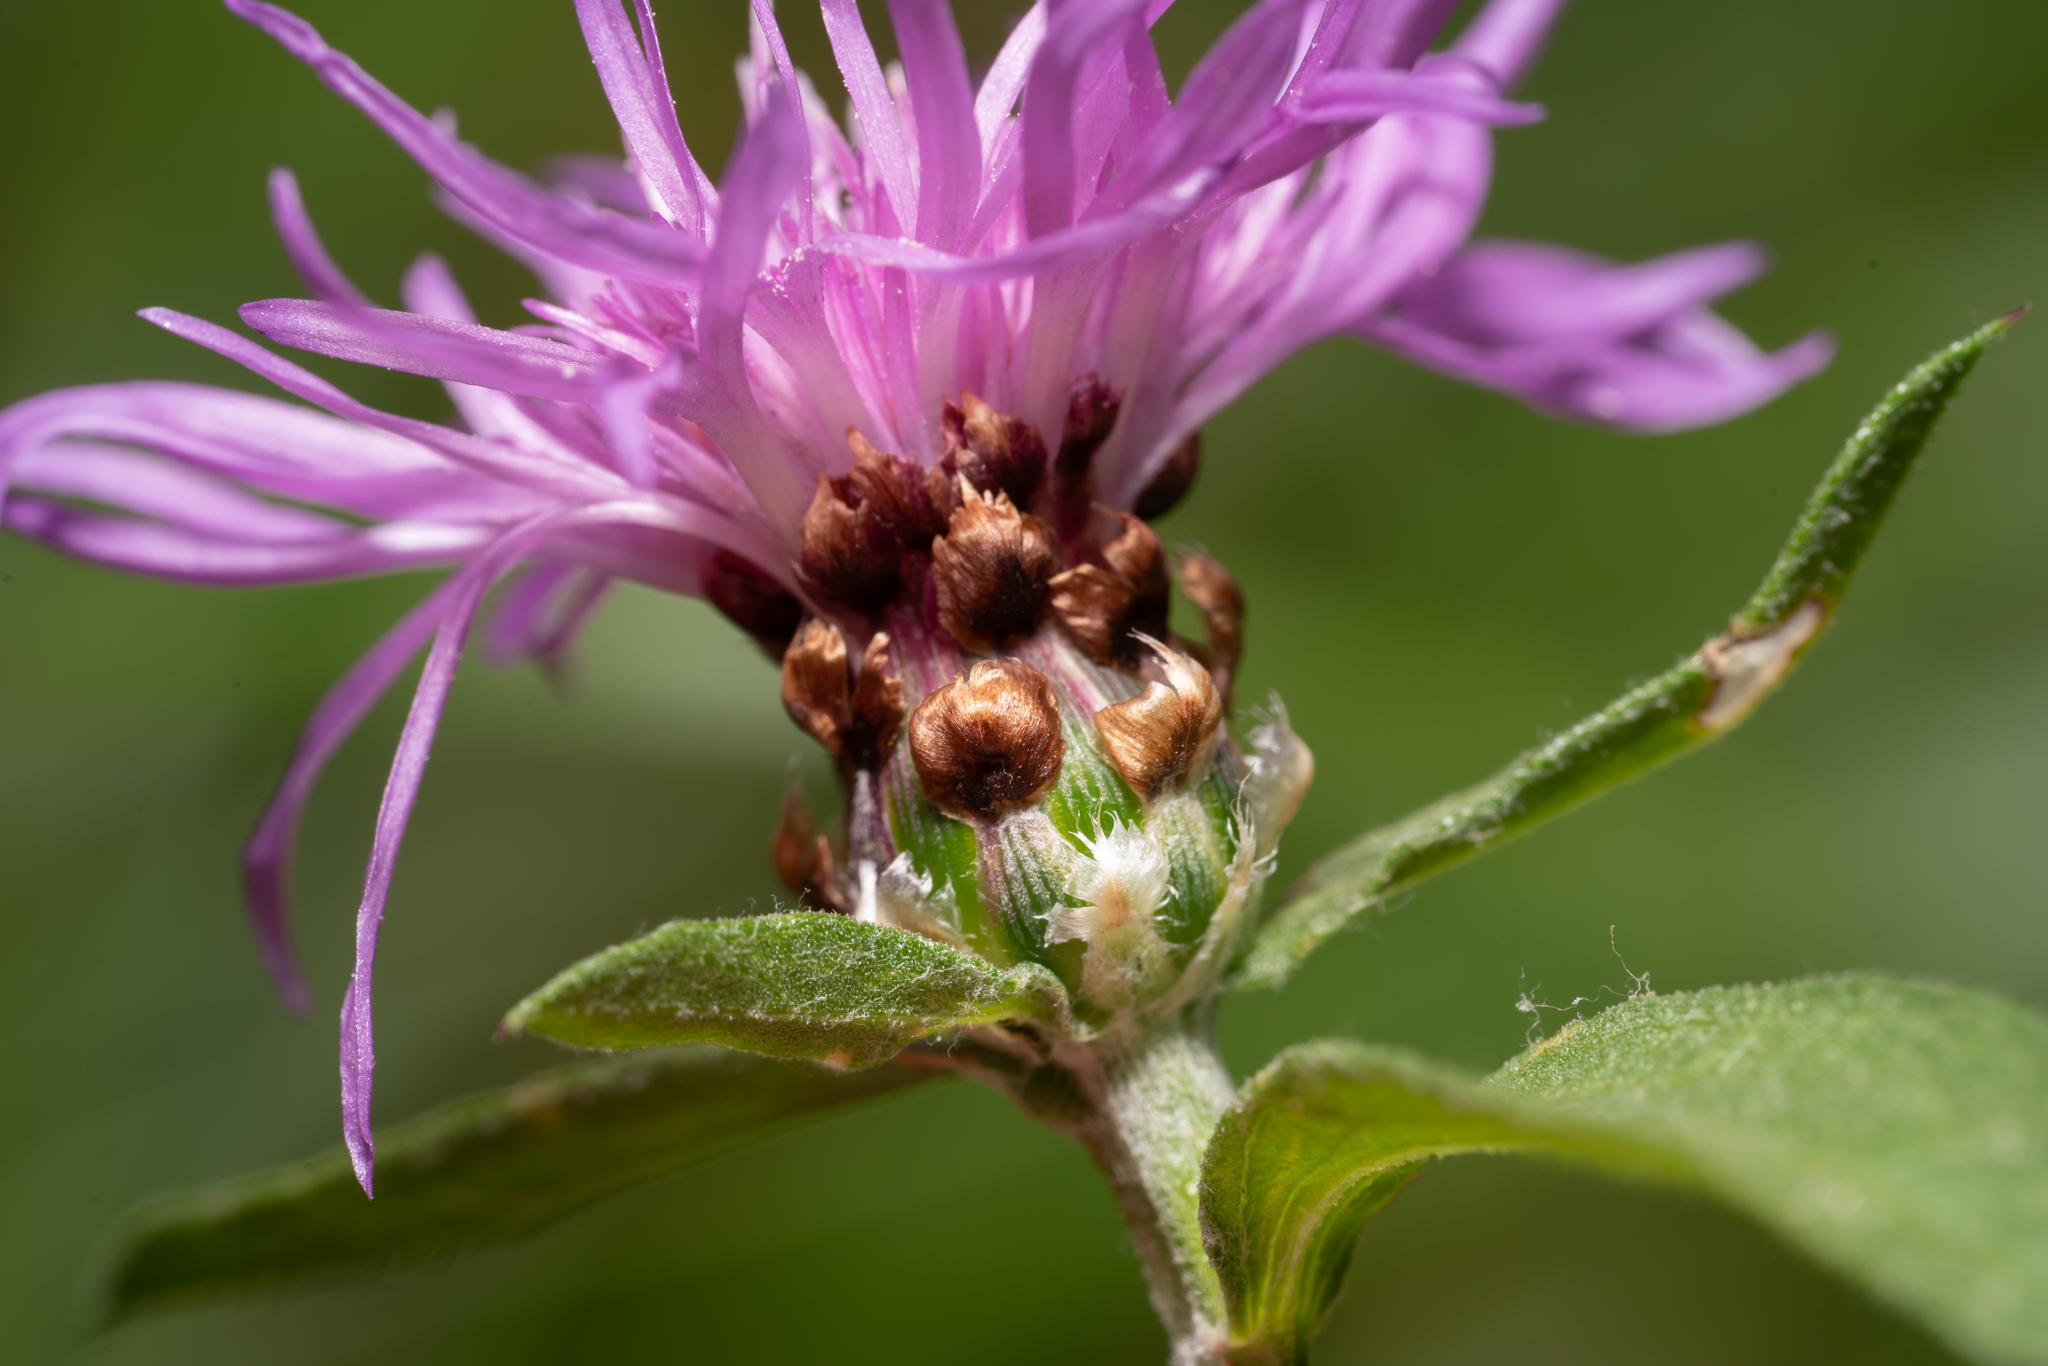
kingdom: Plantae
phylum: Tracheophyta
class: Magnoliopsida
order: Asterales
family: Asteraceae
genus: Centaurea
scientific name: Centaurea jacea
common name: Brown knapweed
